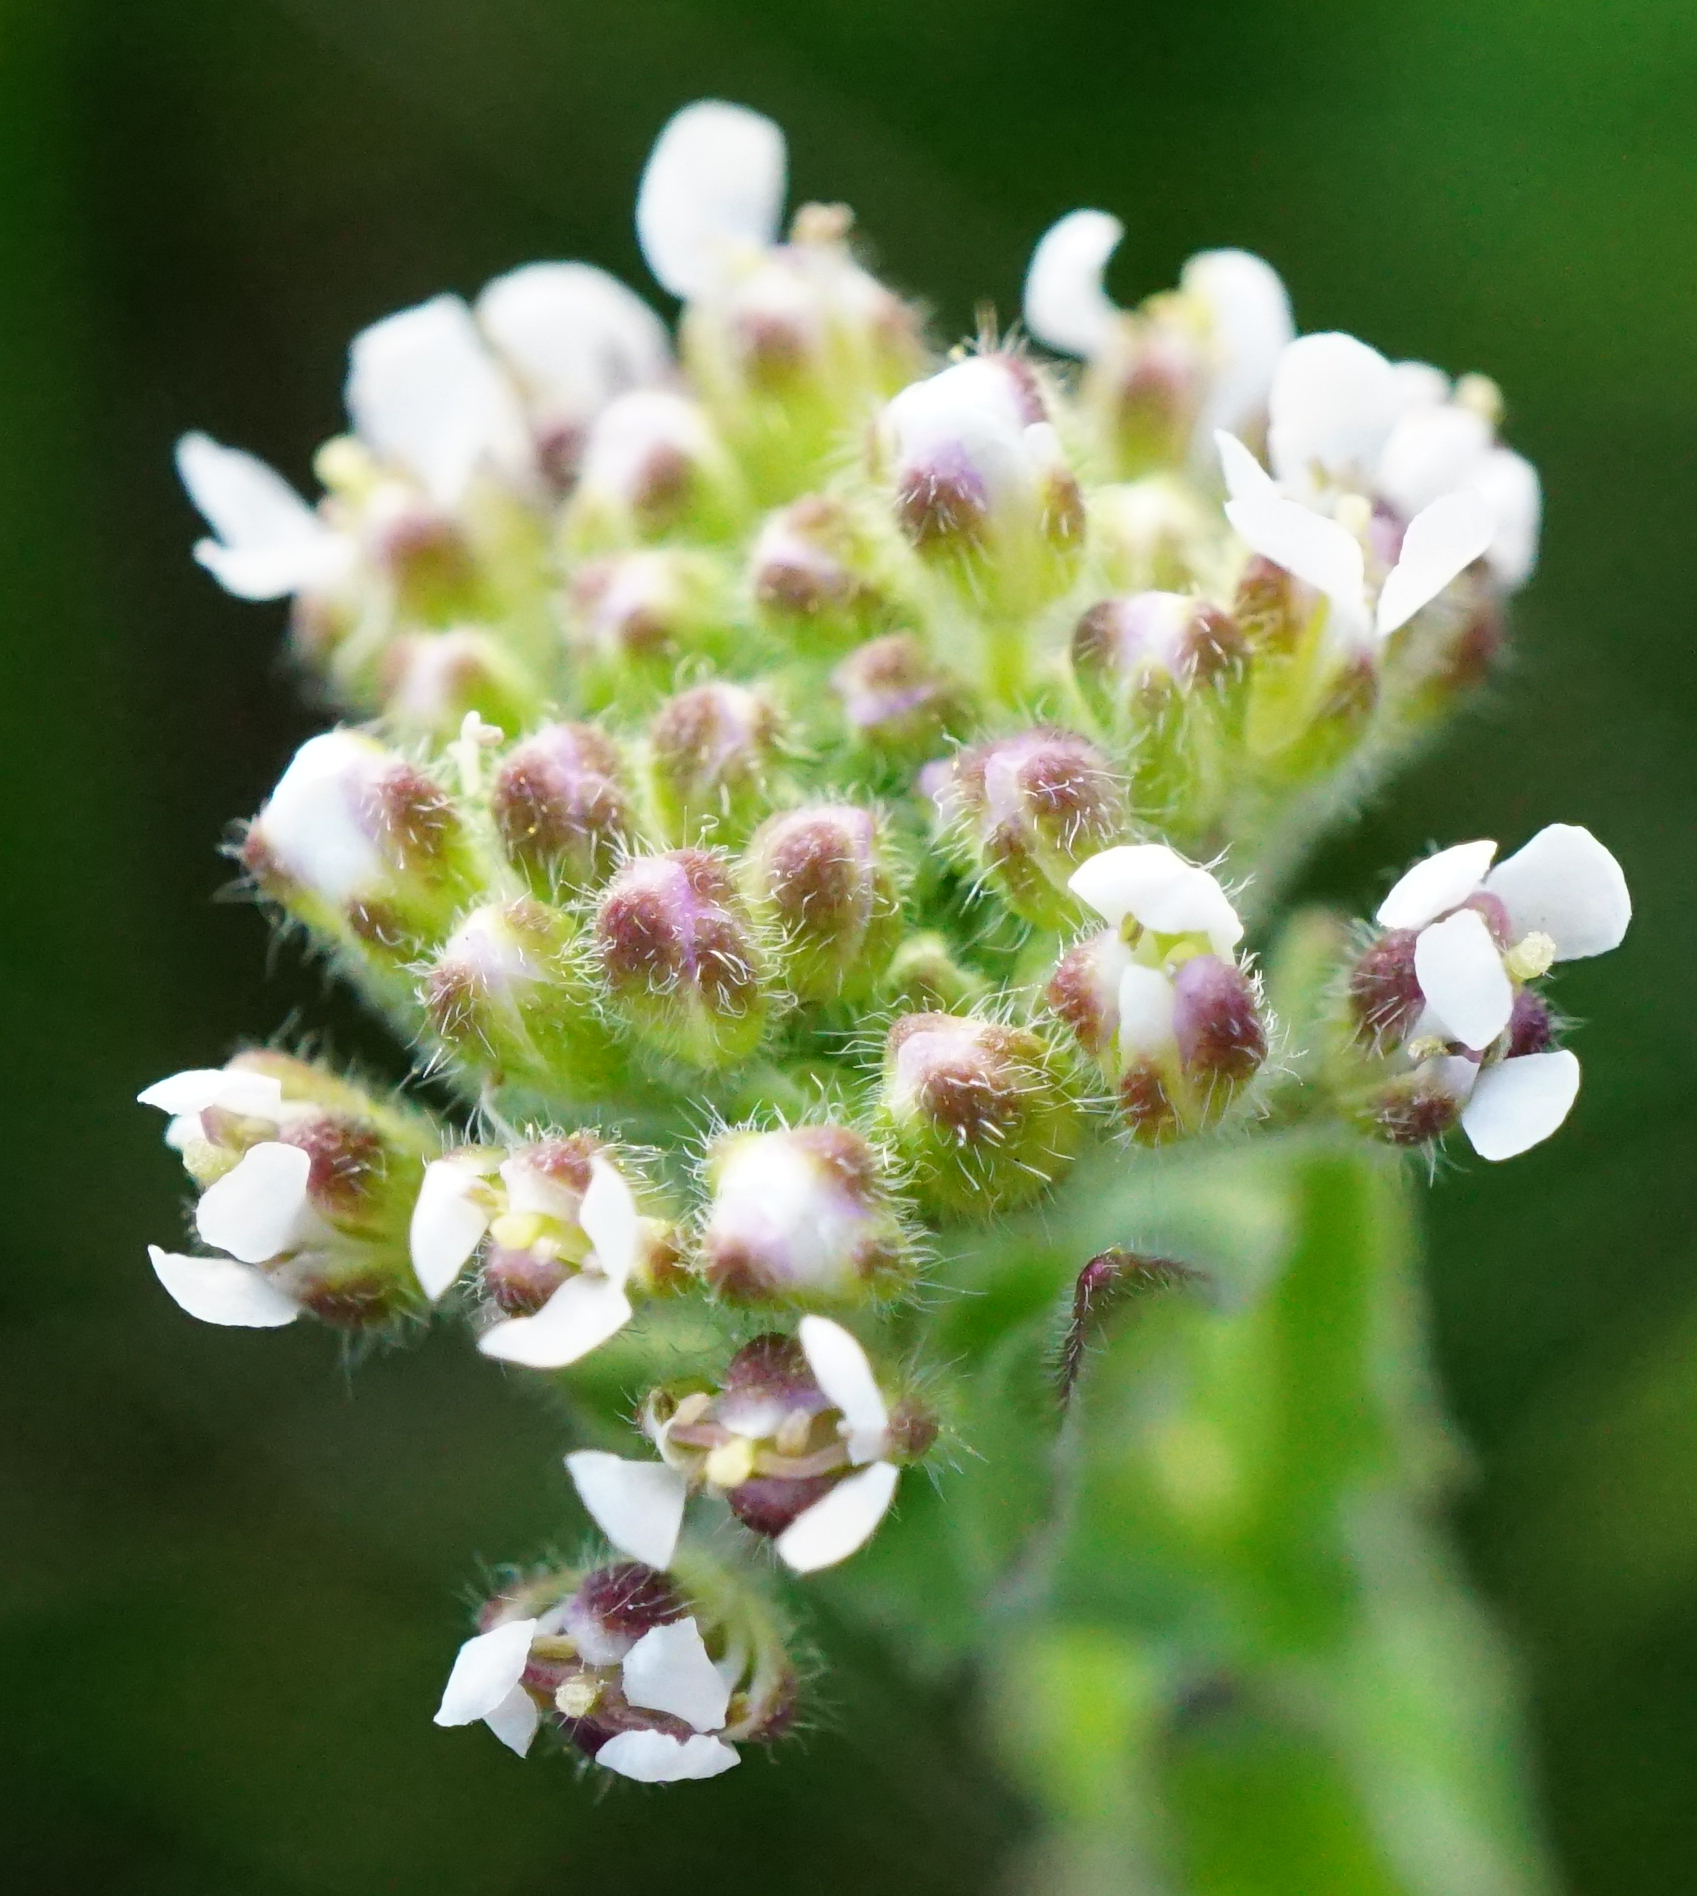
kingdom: Plantae
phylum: Tracheophyta
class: Magnoliopsida
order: Brassicales
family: Brassicaceae
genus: Lepidium
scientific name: Lepidium campestre
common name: Field pepperwort
